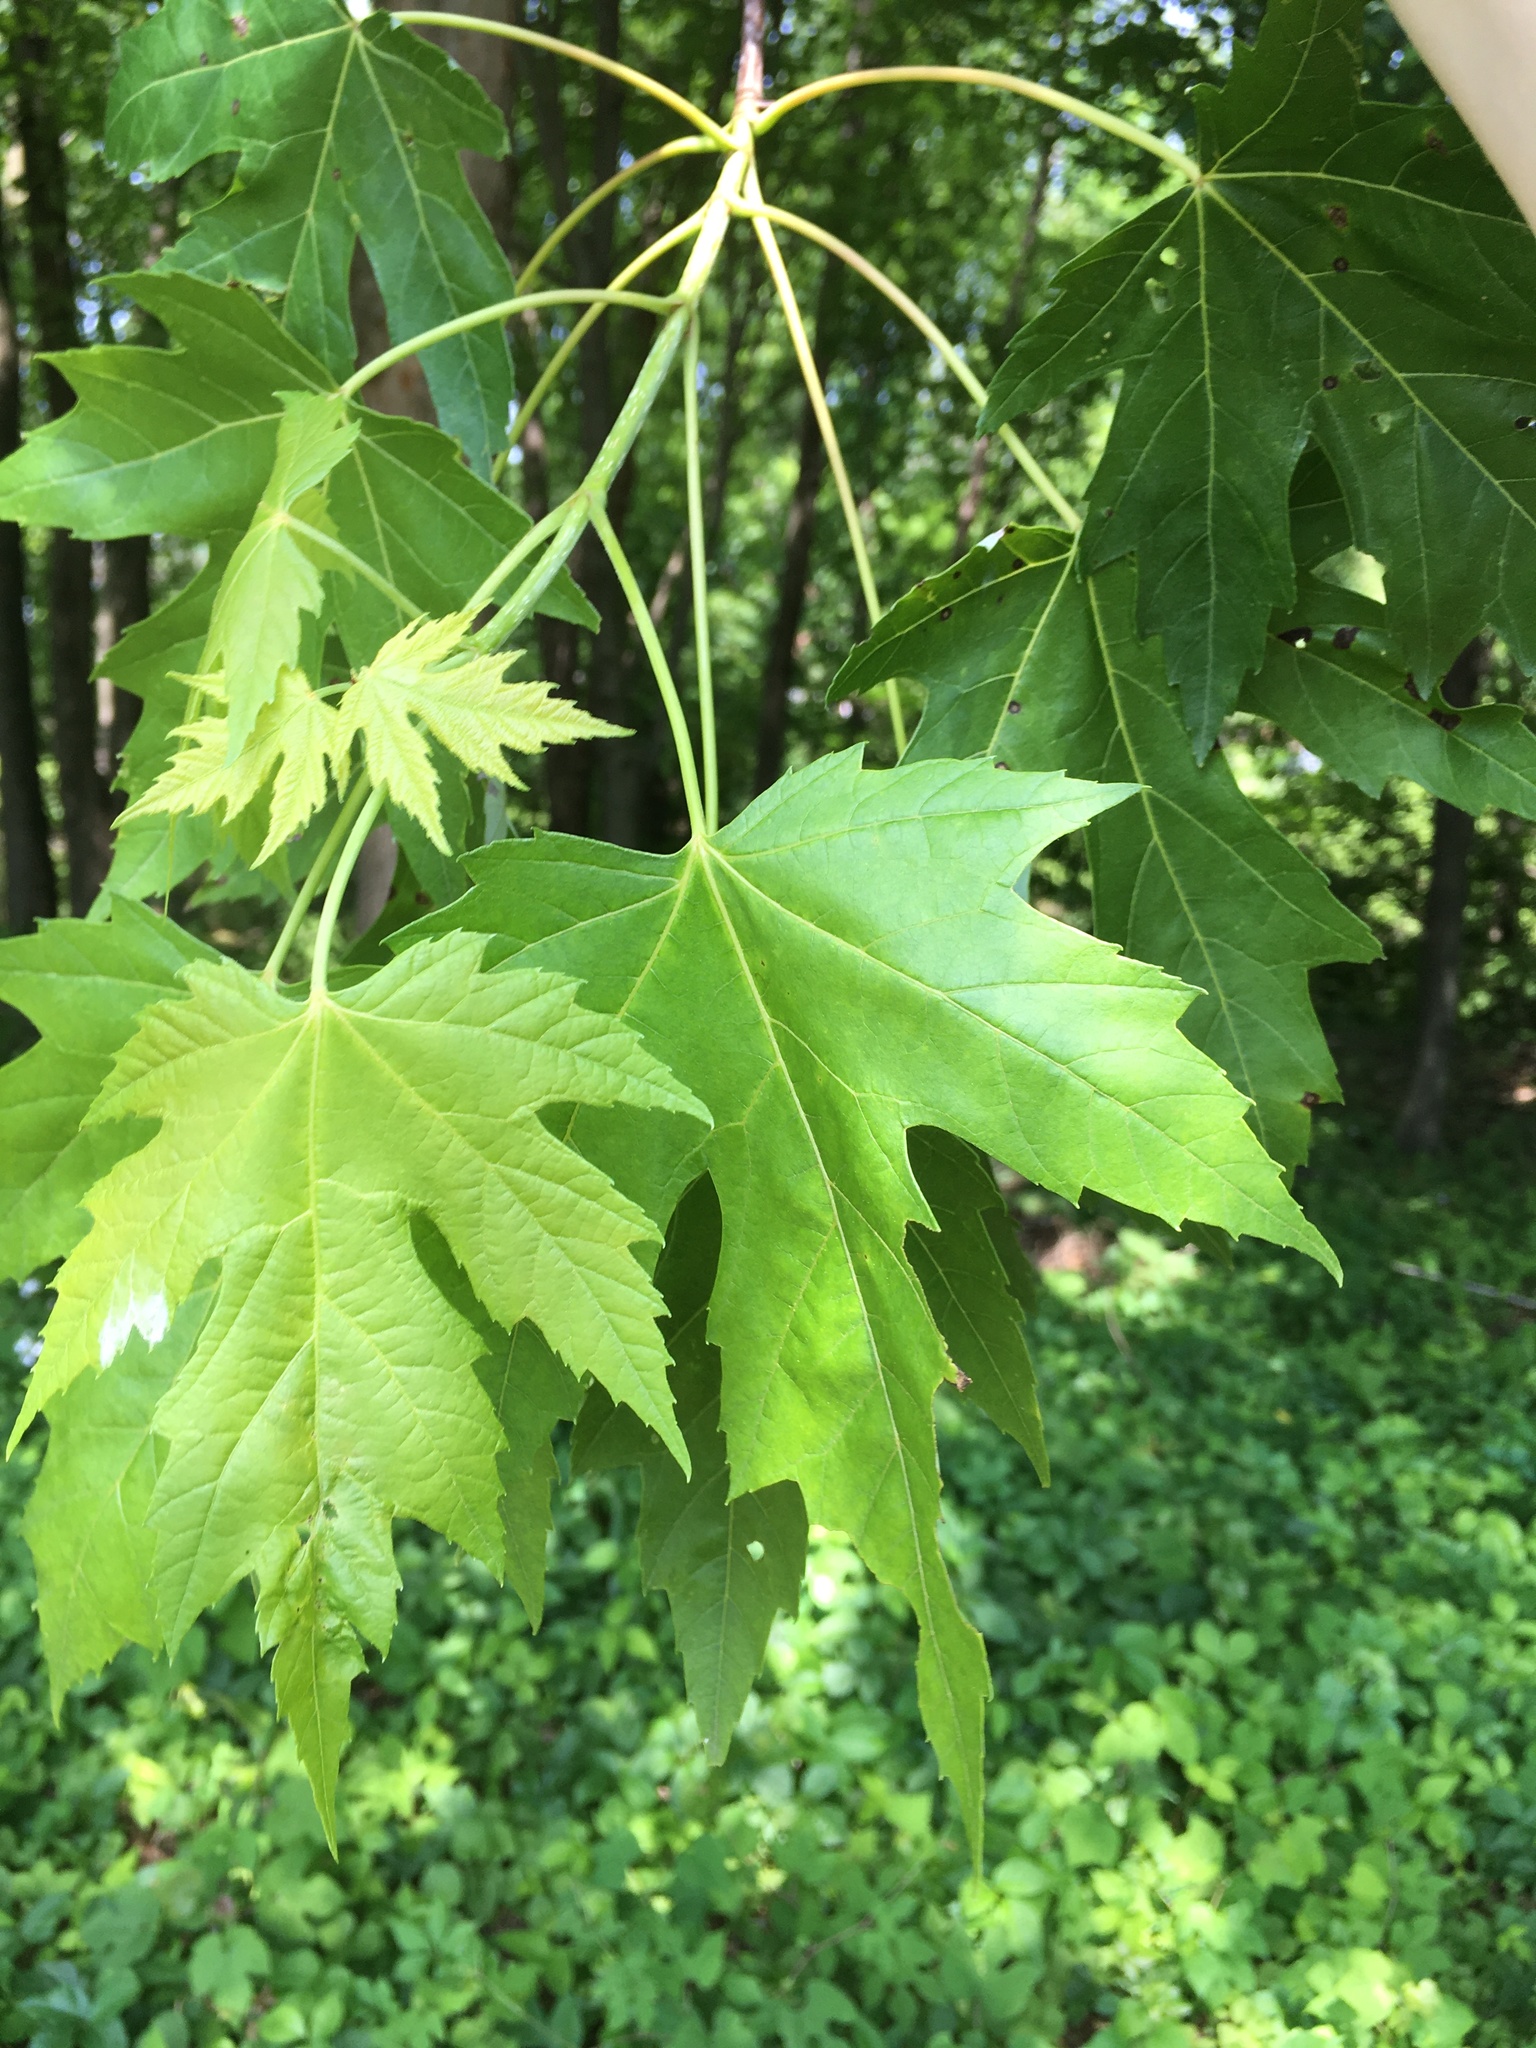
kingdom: Plantae
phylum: Tracheophyta
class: Magnoliopsida
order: Sapindales
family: Sapindaceae
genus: Acer
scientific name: Acer saccharinum
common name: Silver maple
